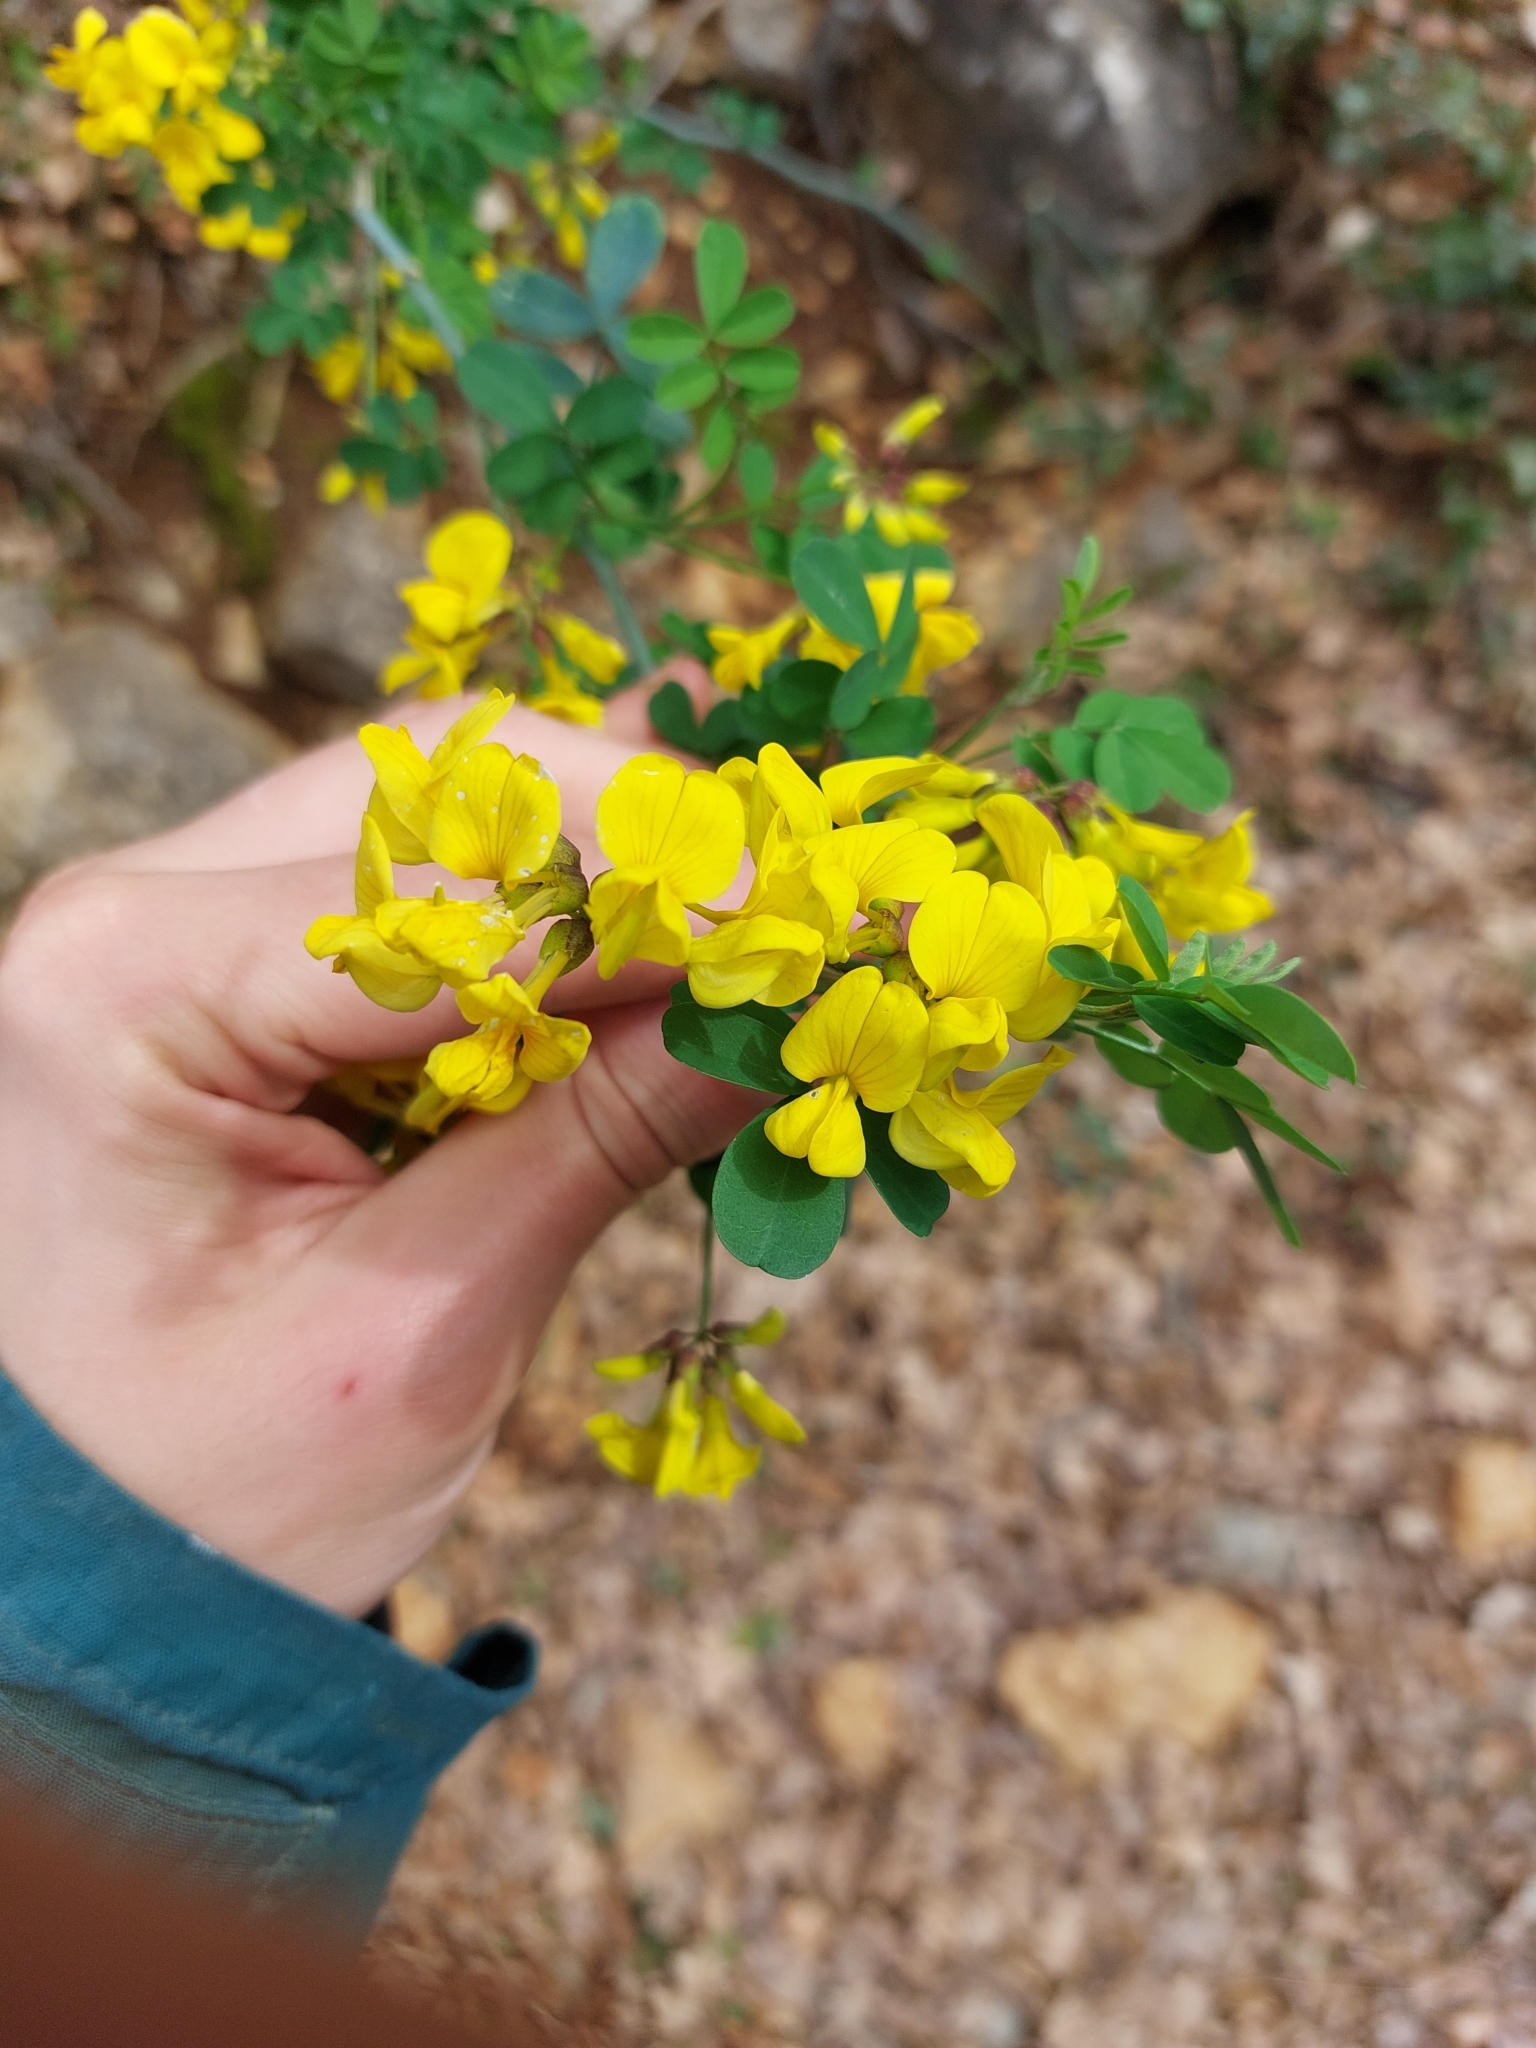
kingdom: Plantae
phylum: Tracheophyta
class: Magnoliopsida
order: Fabales
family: Fabaceae
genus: Hippocrepis
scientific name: Hippocrepis emerus
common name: Scorpion senna
